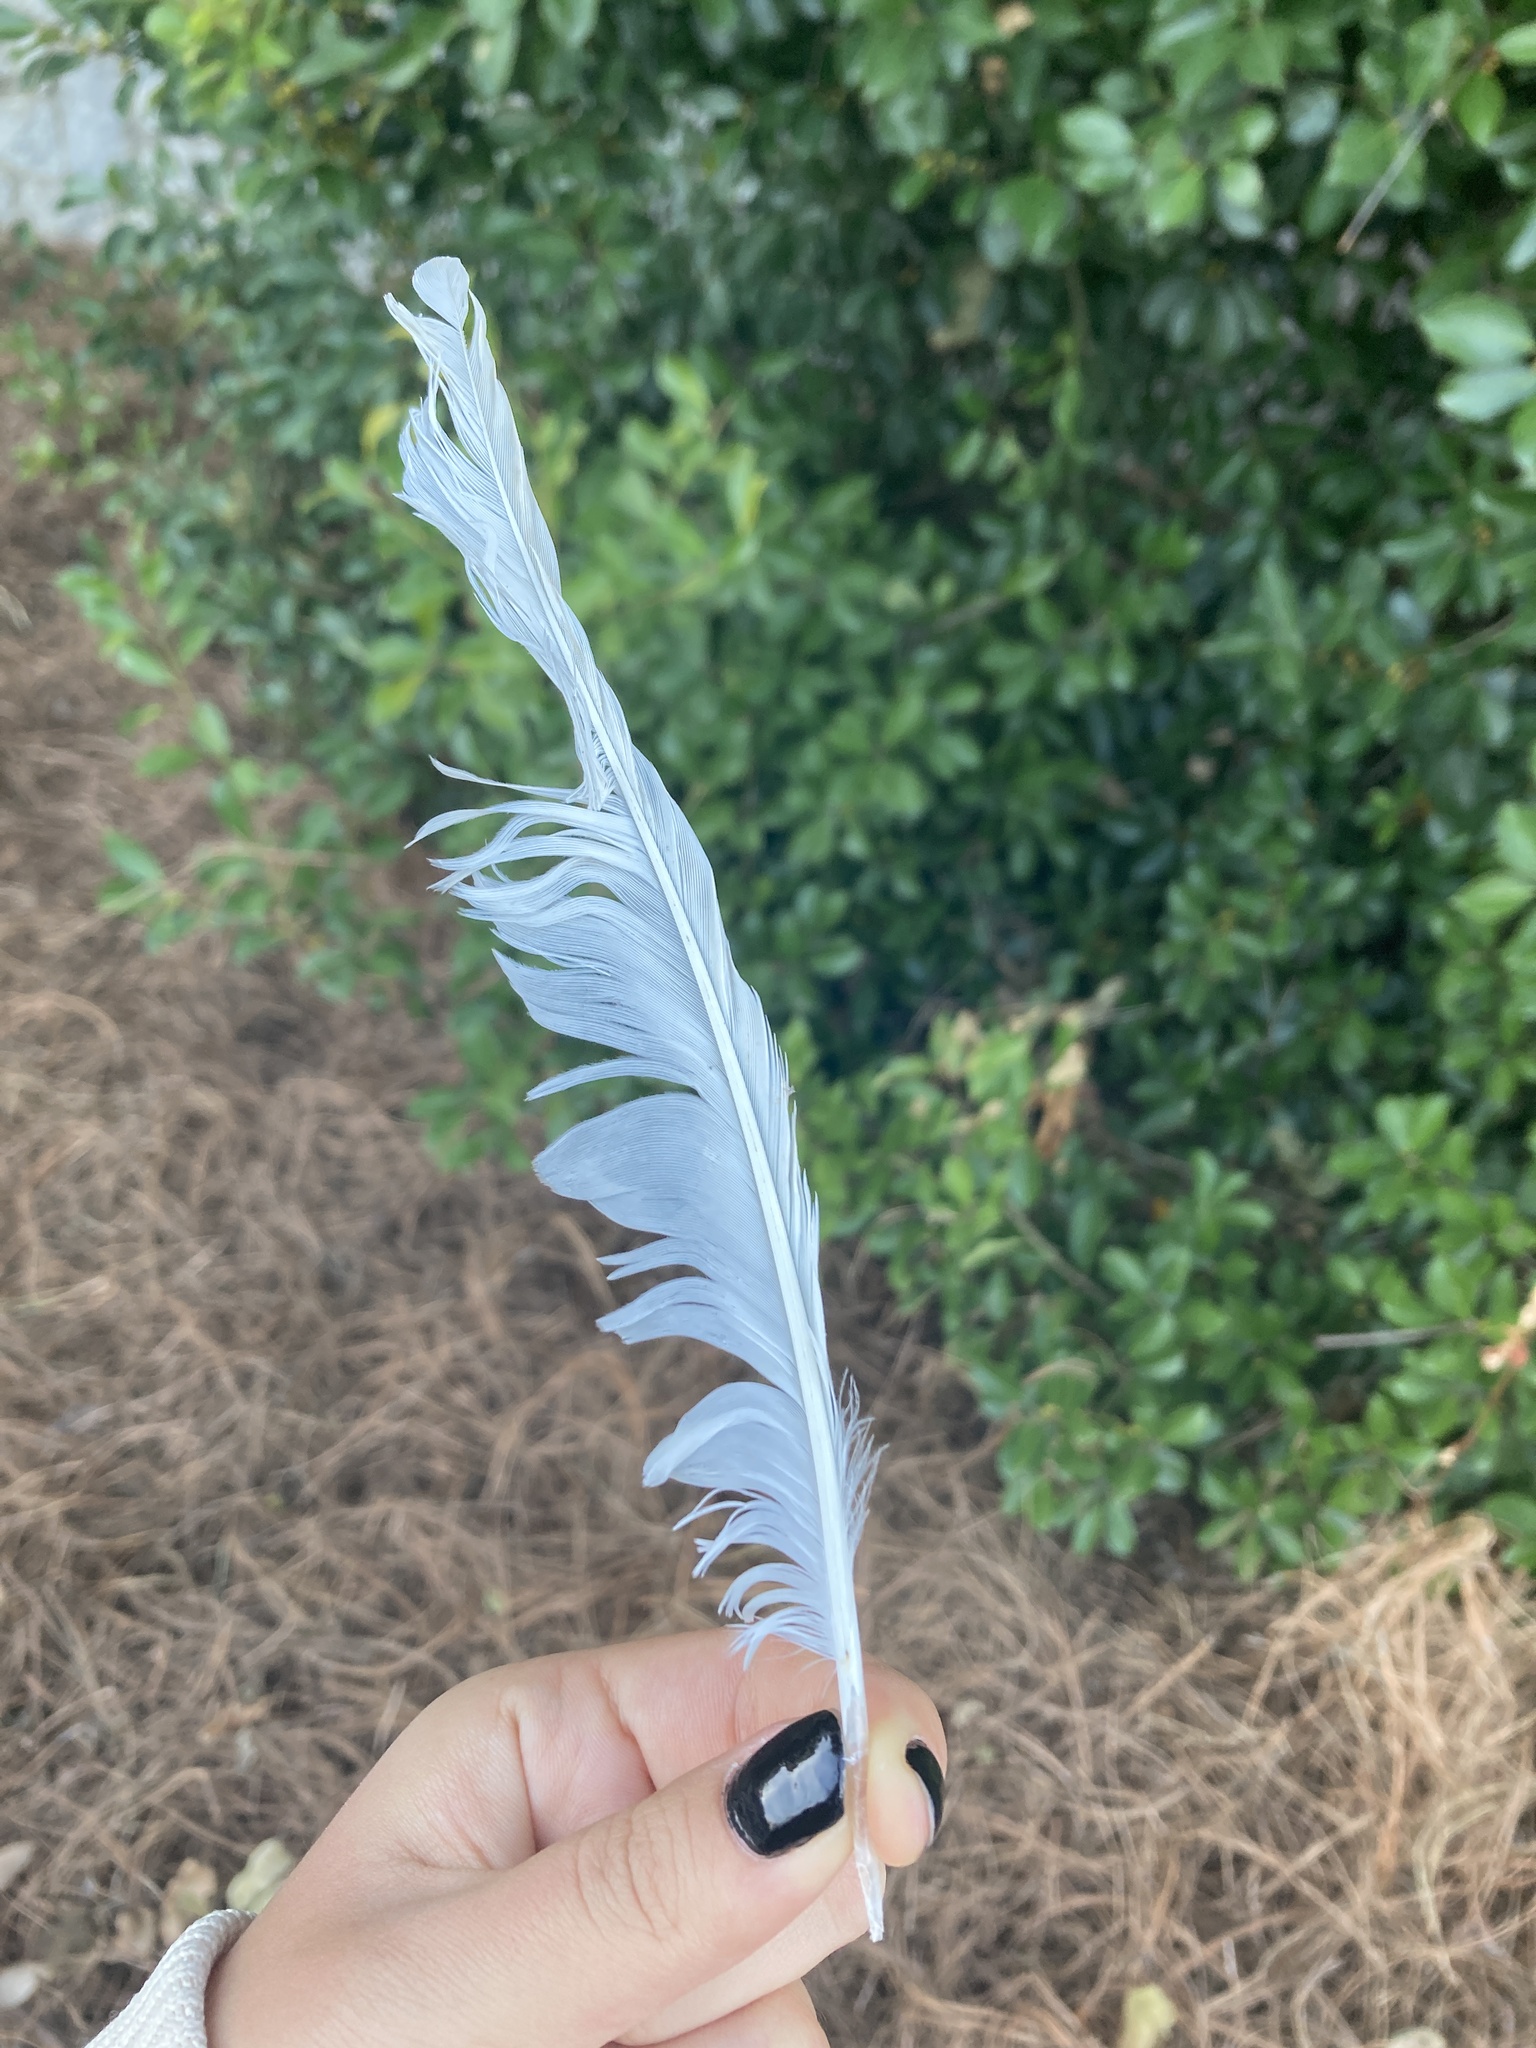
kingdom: Animalia
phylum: Chordata
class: Aves
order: Pelecaniformes
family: Ardeidae
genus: Egretta
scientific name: Egretta thula
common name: Snowy egret
